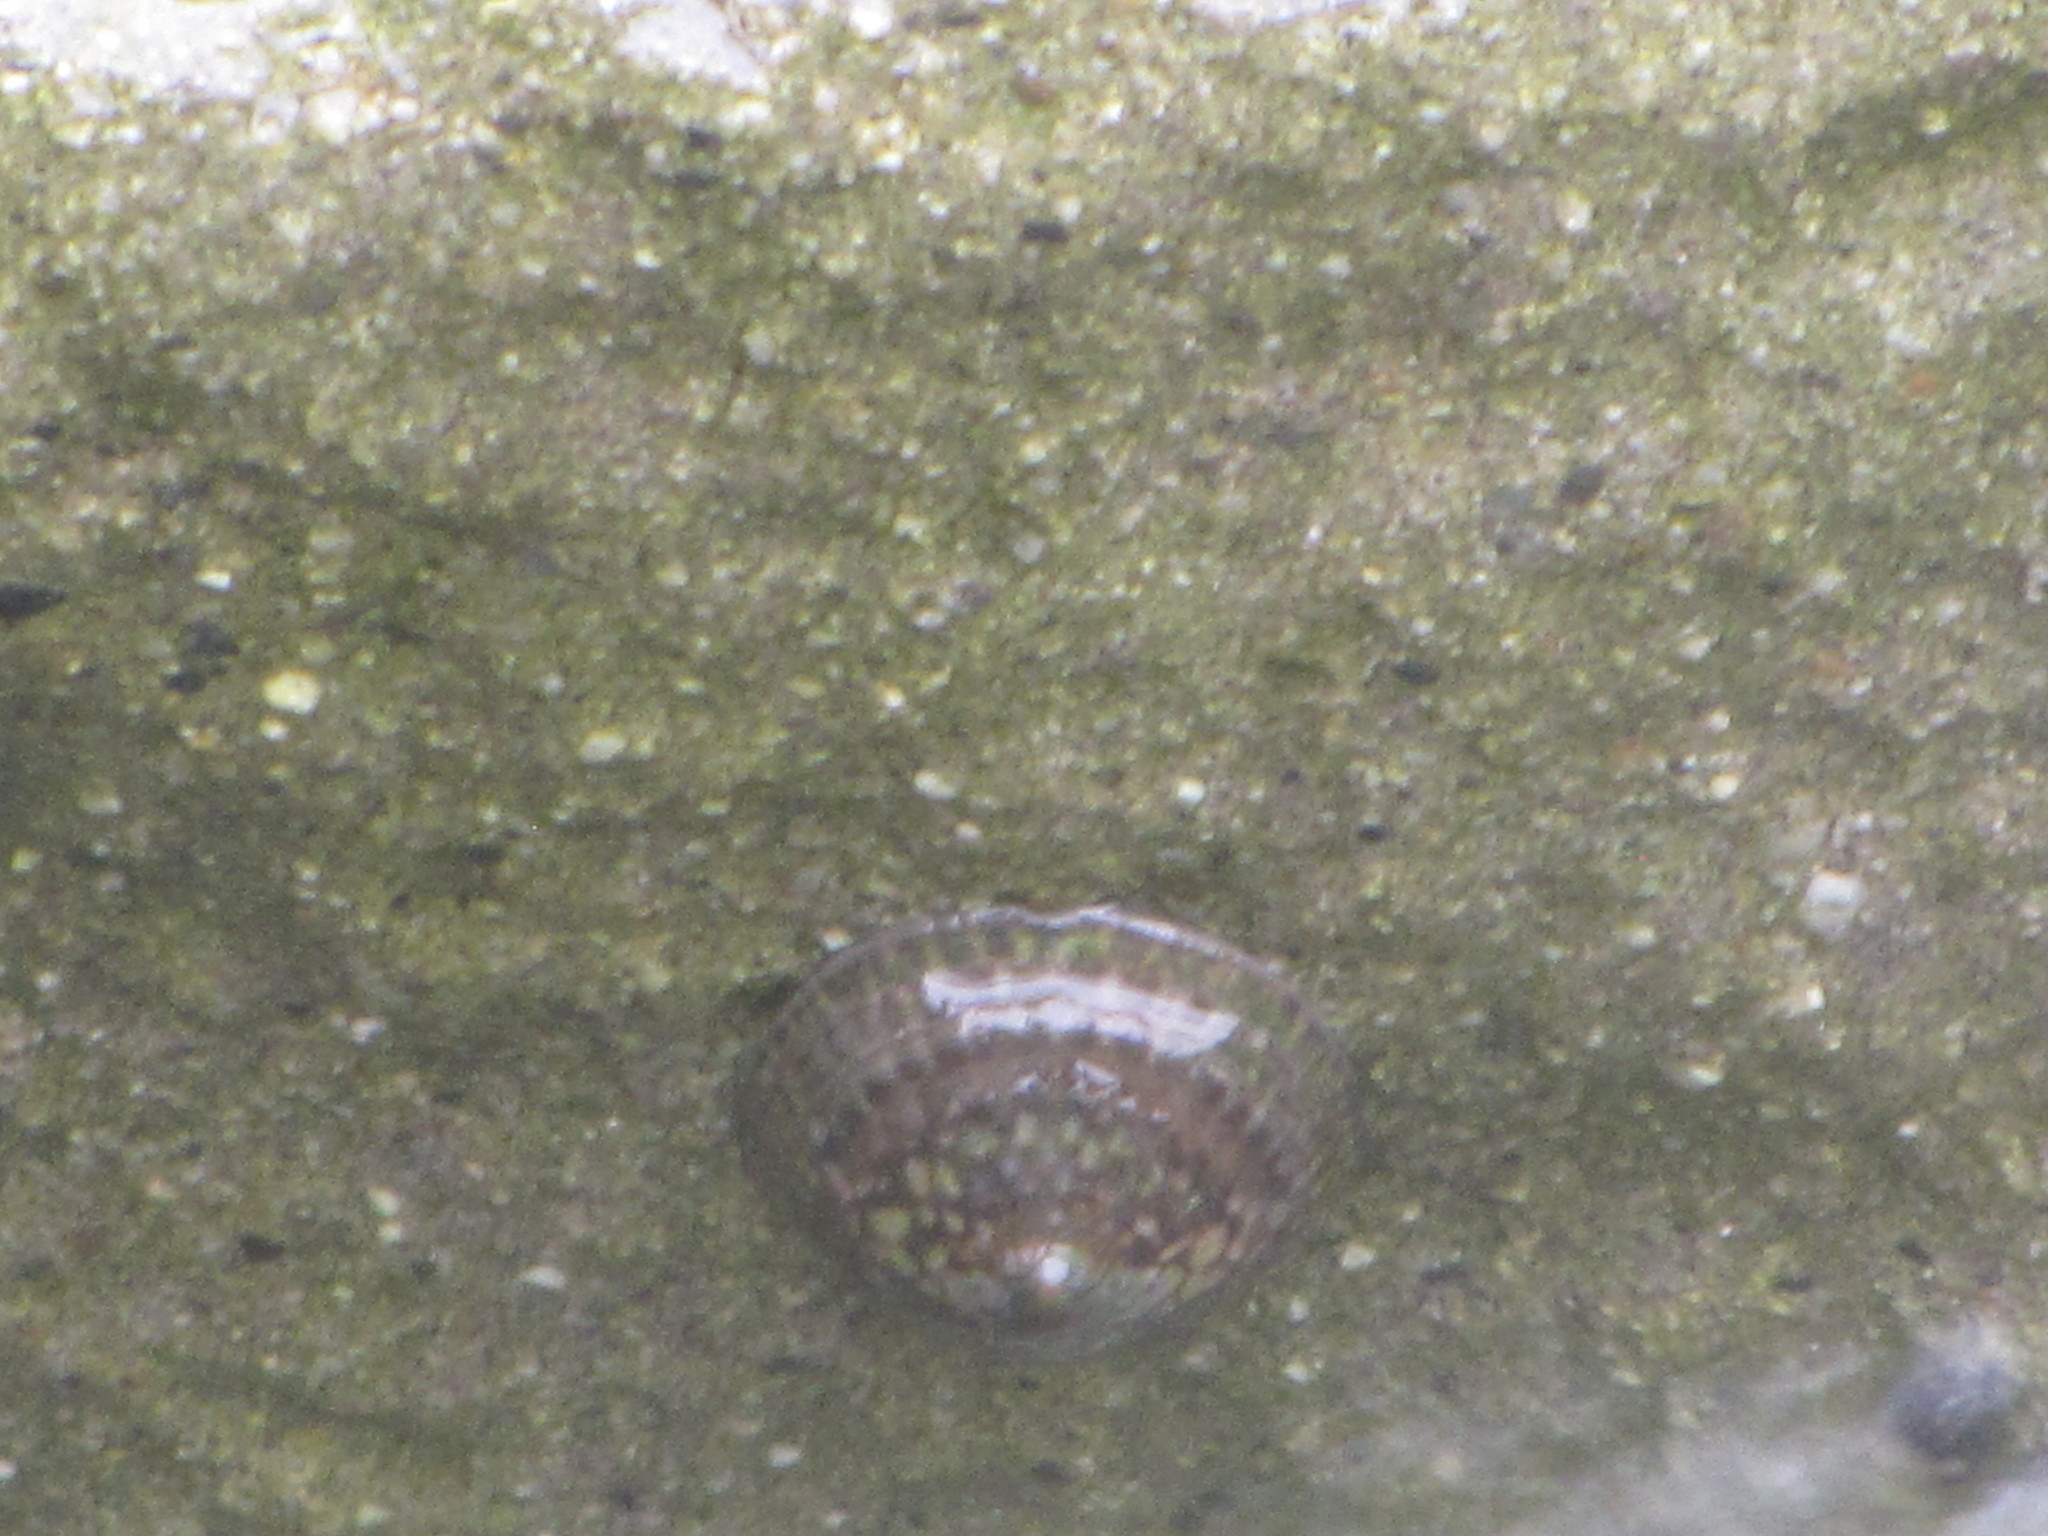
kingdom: Animalia
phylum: Mollusca
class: Gastropoda
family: Lottiidae
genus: Lottia
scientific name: Lottia pelta
